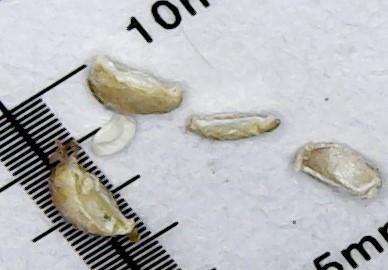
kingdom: Plantae
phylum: Tracheophyta
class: Magnoliopsida
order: Malpighiales
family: Euphorbiaceae
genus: Euphorbia
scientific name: Euphorbia maculata
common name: Spotted spurge
